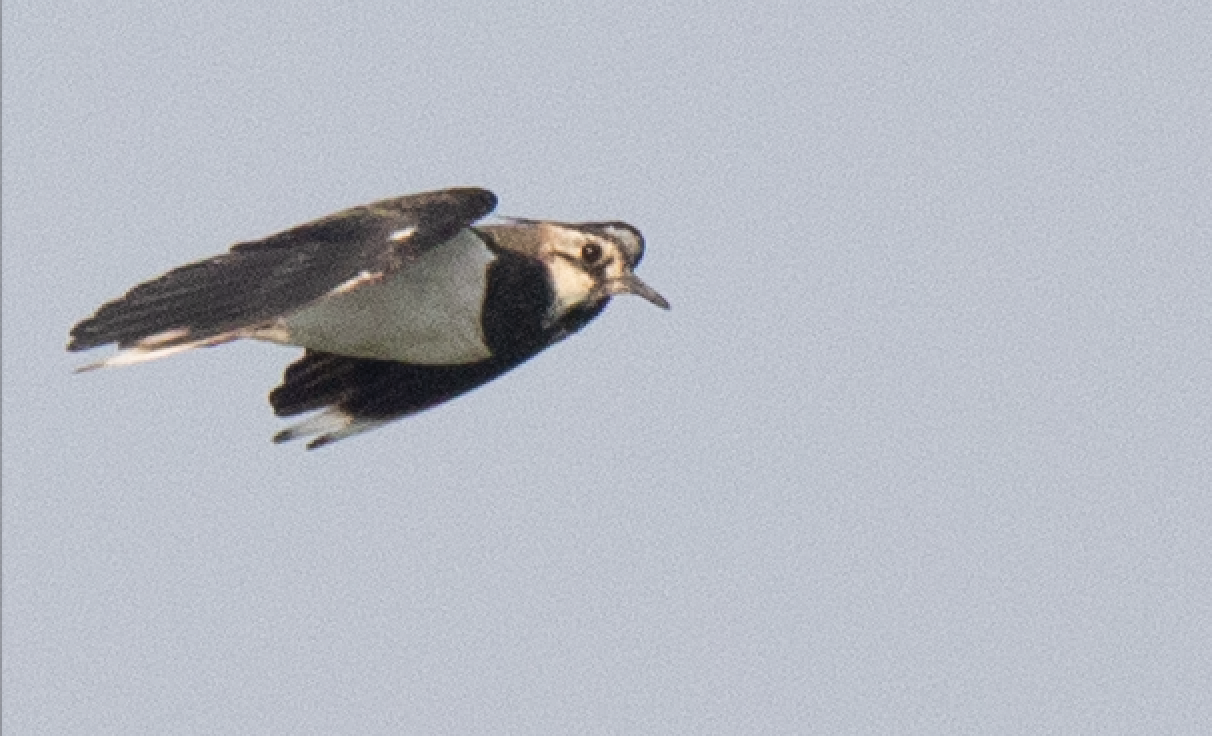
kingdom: Animalia
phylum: Chordata
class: Aves
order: Charadriiformes
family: Charadriidae
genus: Vanellus
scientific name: Vanellus vanellus
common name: Northern lapwing
